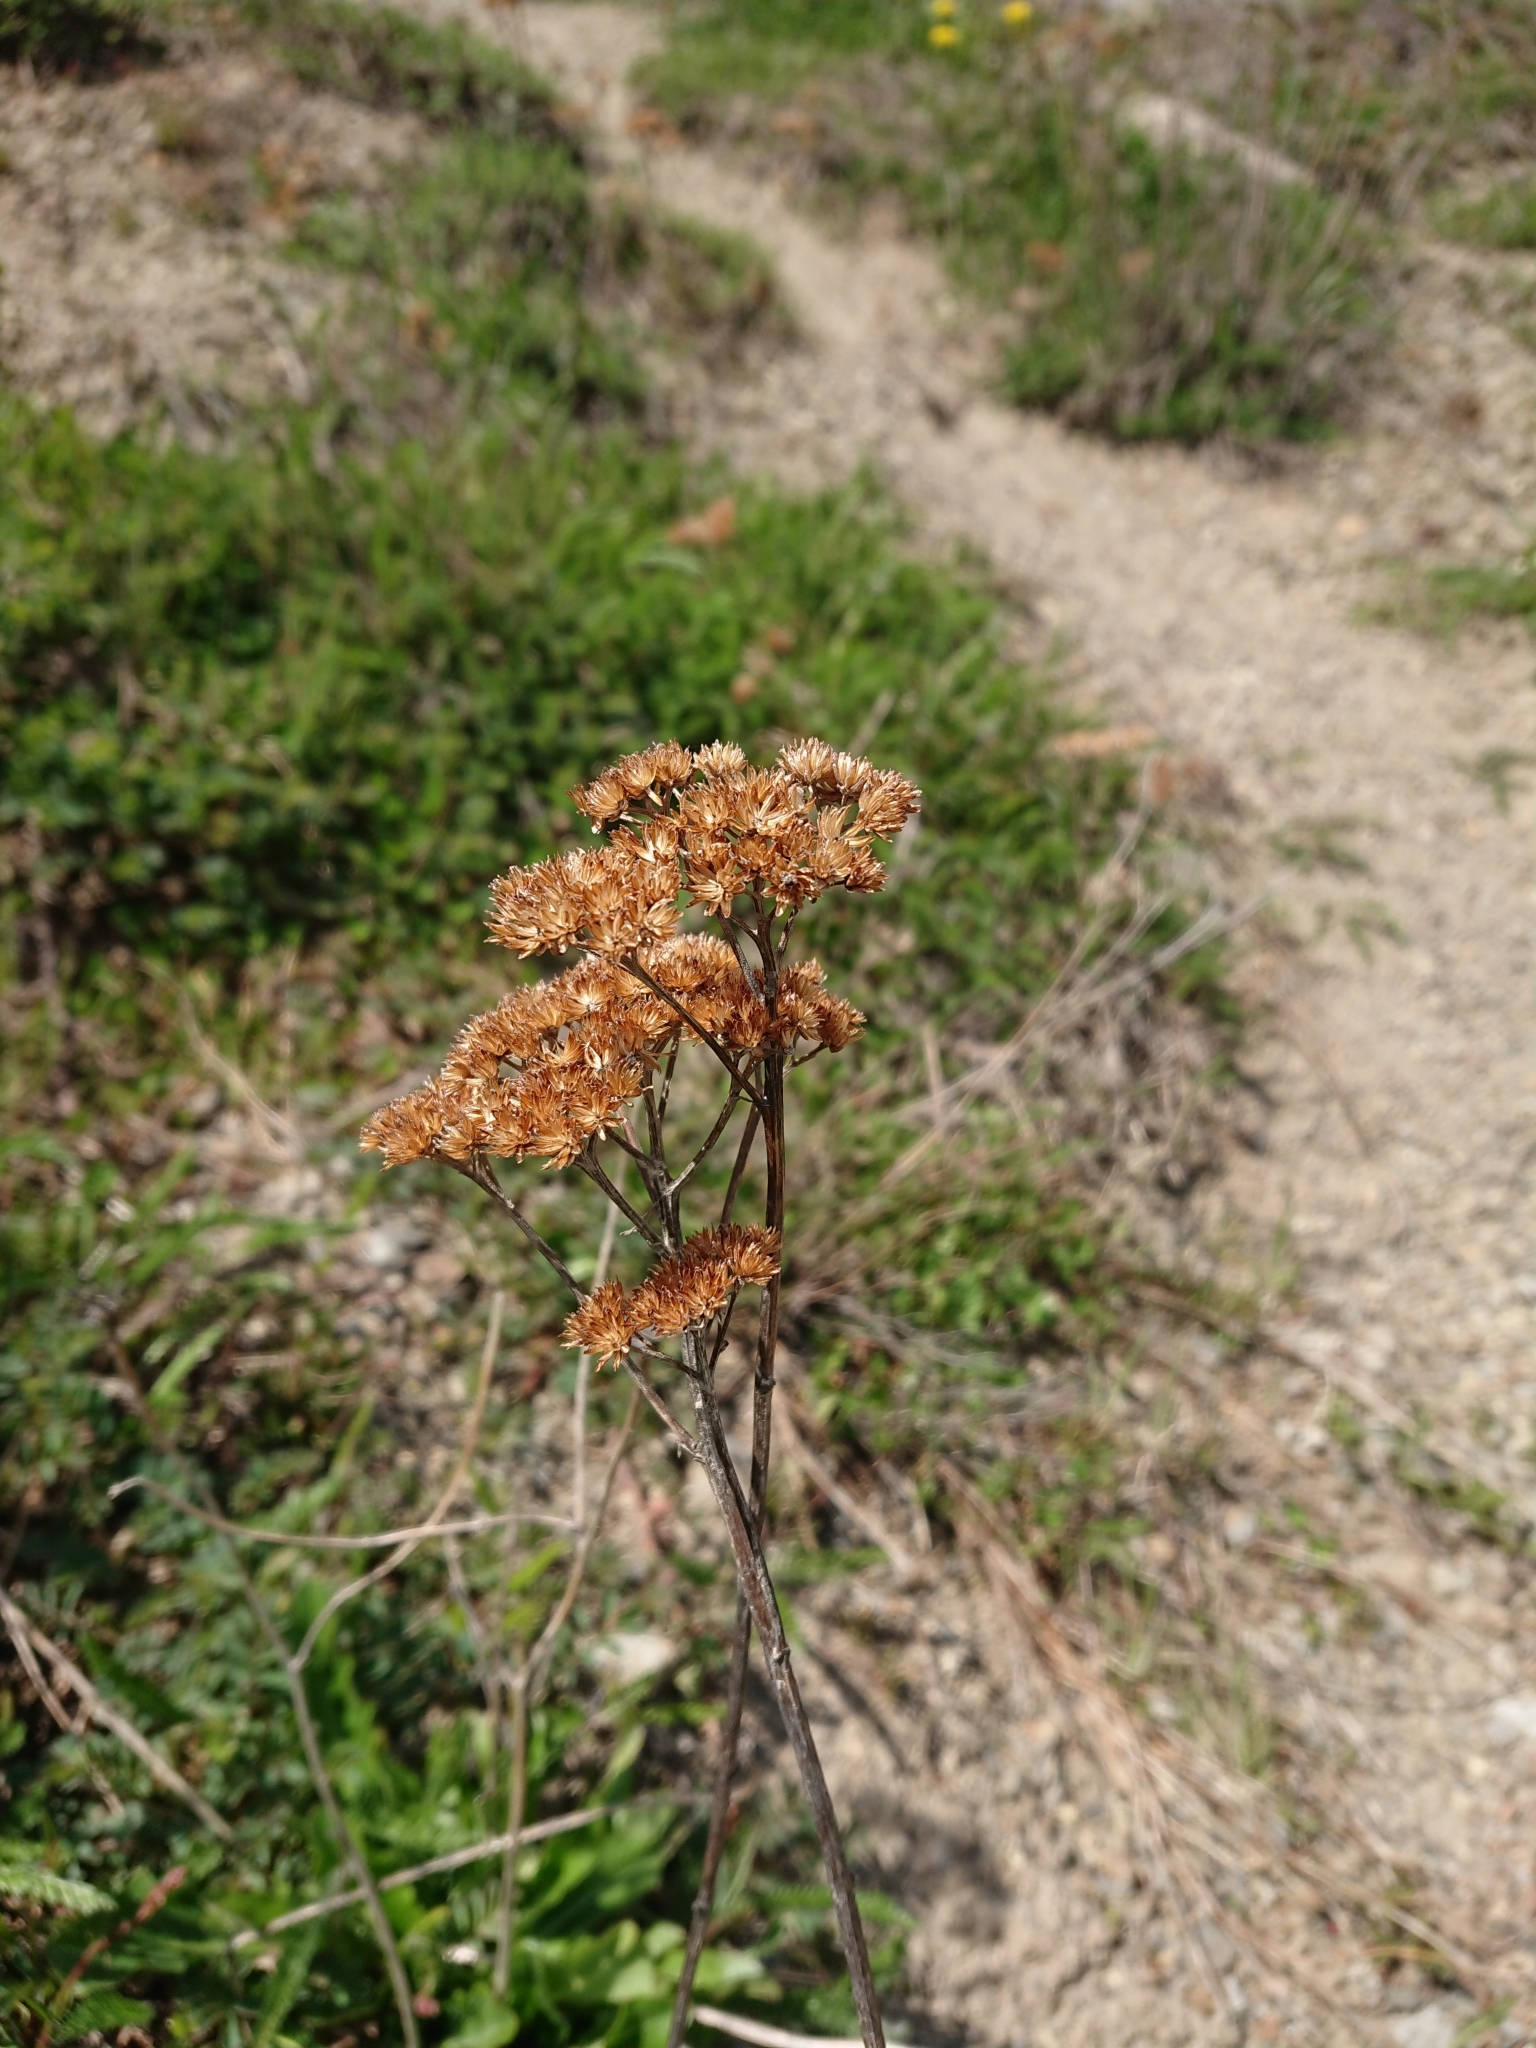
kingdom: Plantae
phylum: Tracheophyta
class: Magnoliopsida
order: Asterales
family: Asteraceae
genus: Achillea
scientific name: Achillea millefolium
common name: Yarrow
